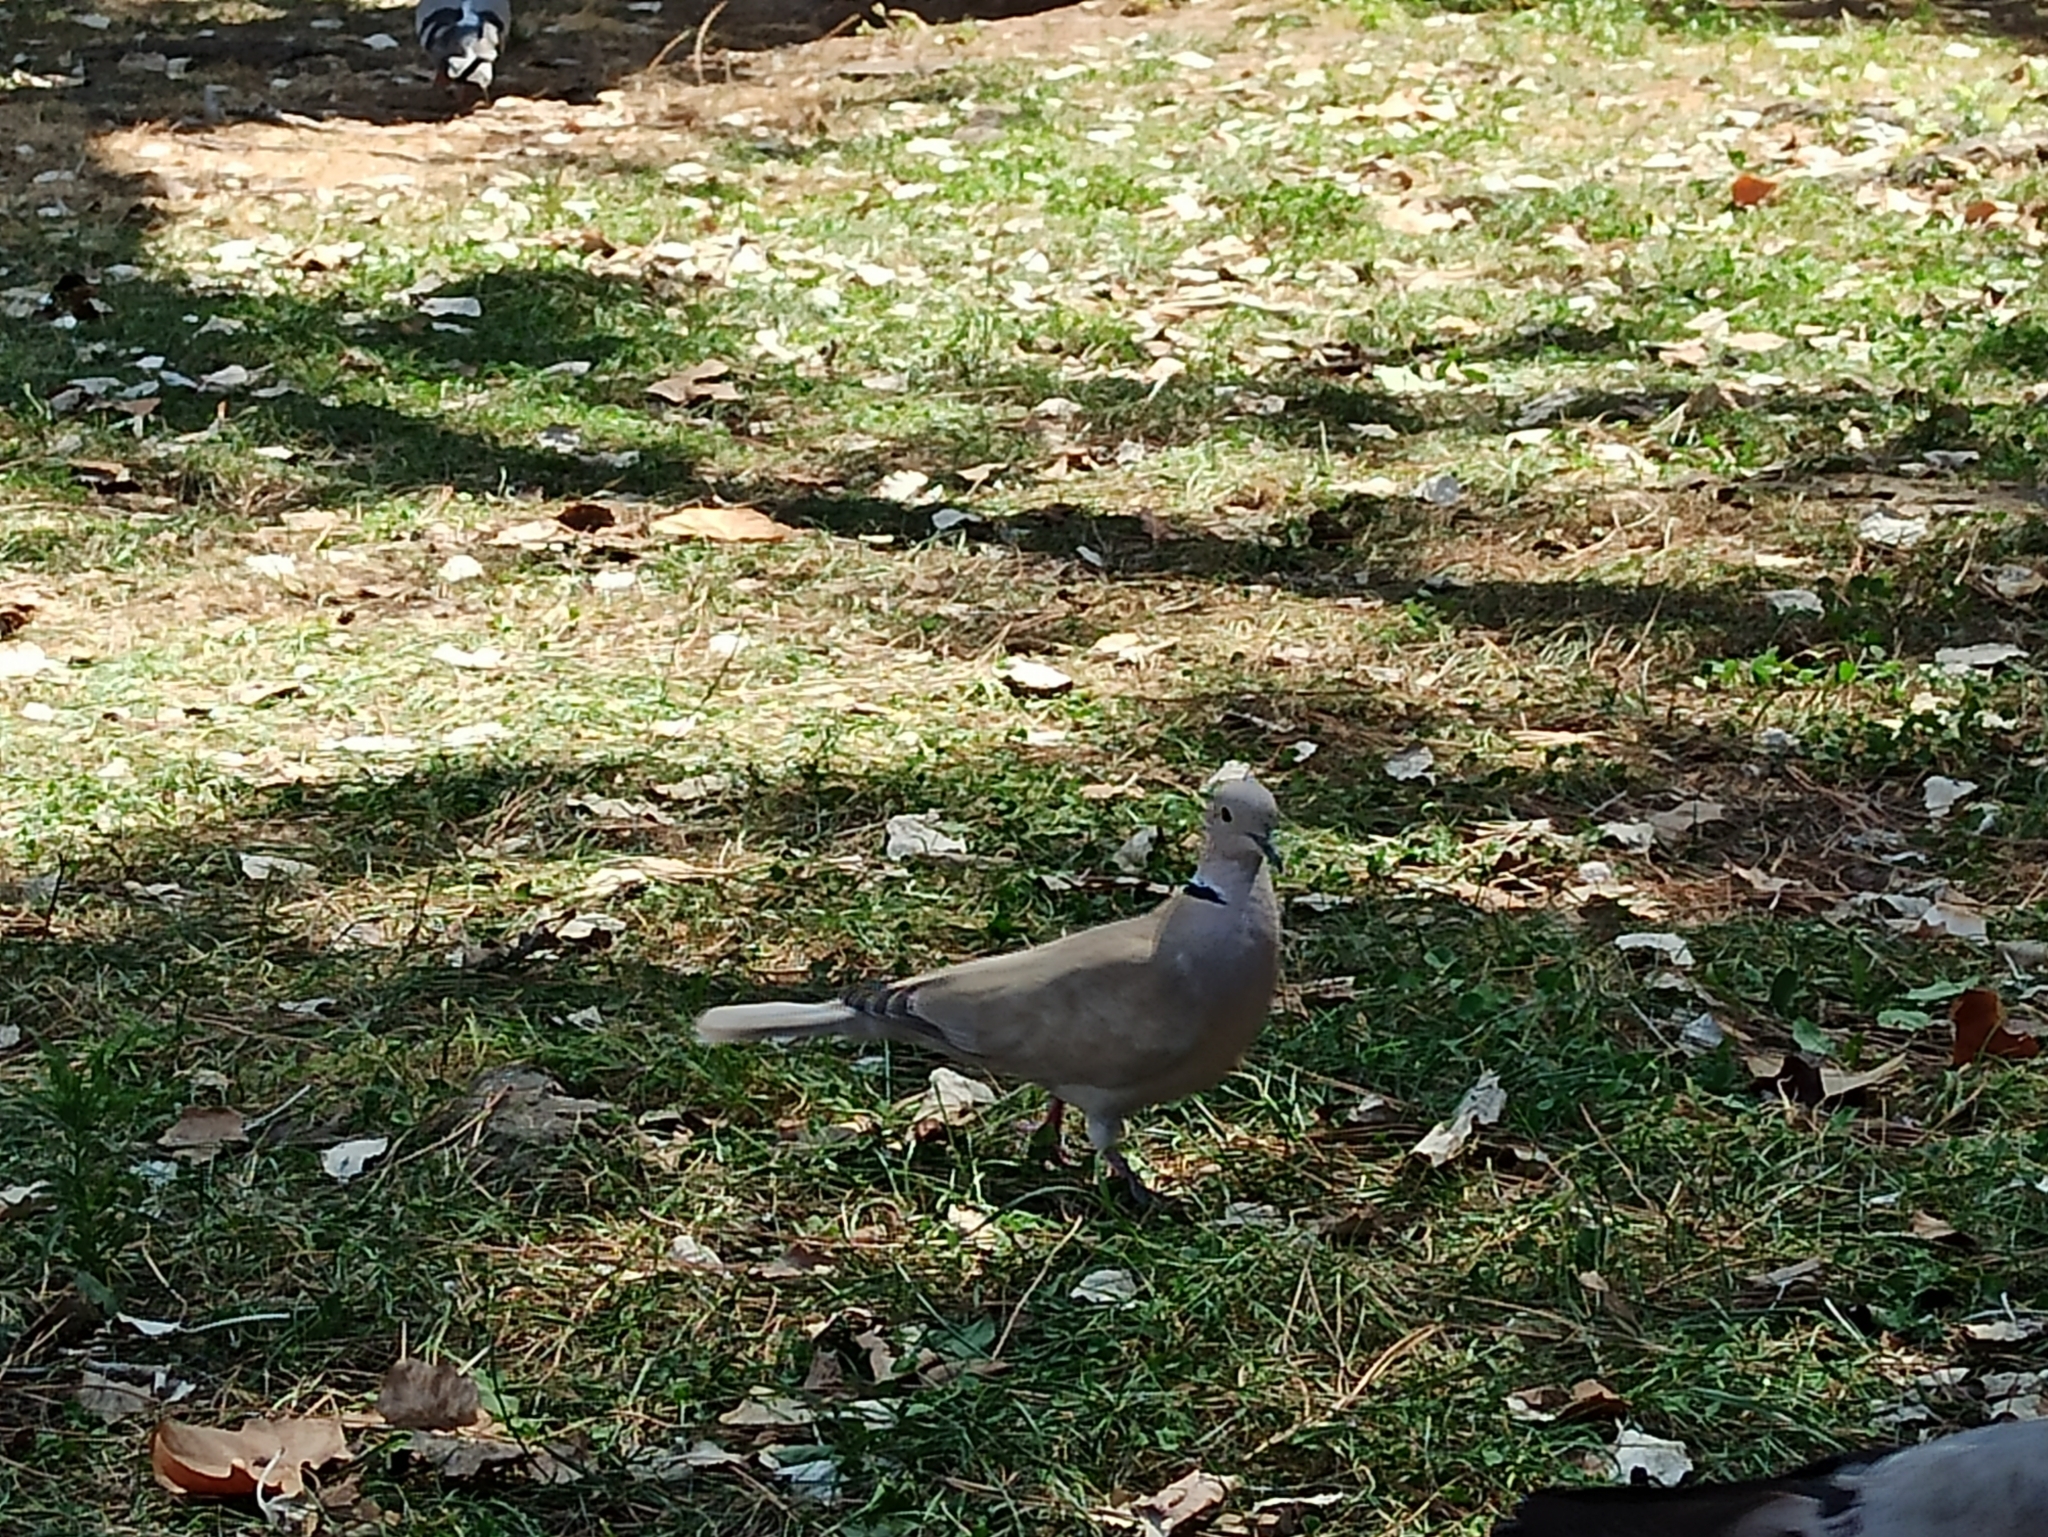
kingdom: Animalia
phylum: Chordata
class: Aves
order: Columbiformes
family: Columbidae
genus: Streptopelia
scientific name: Streptopelia decaocto
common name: Eurasian collared dove
